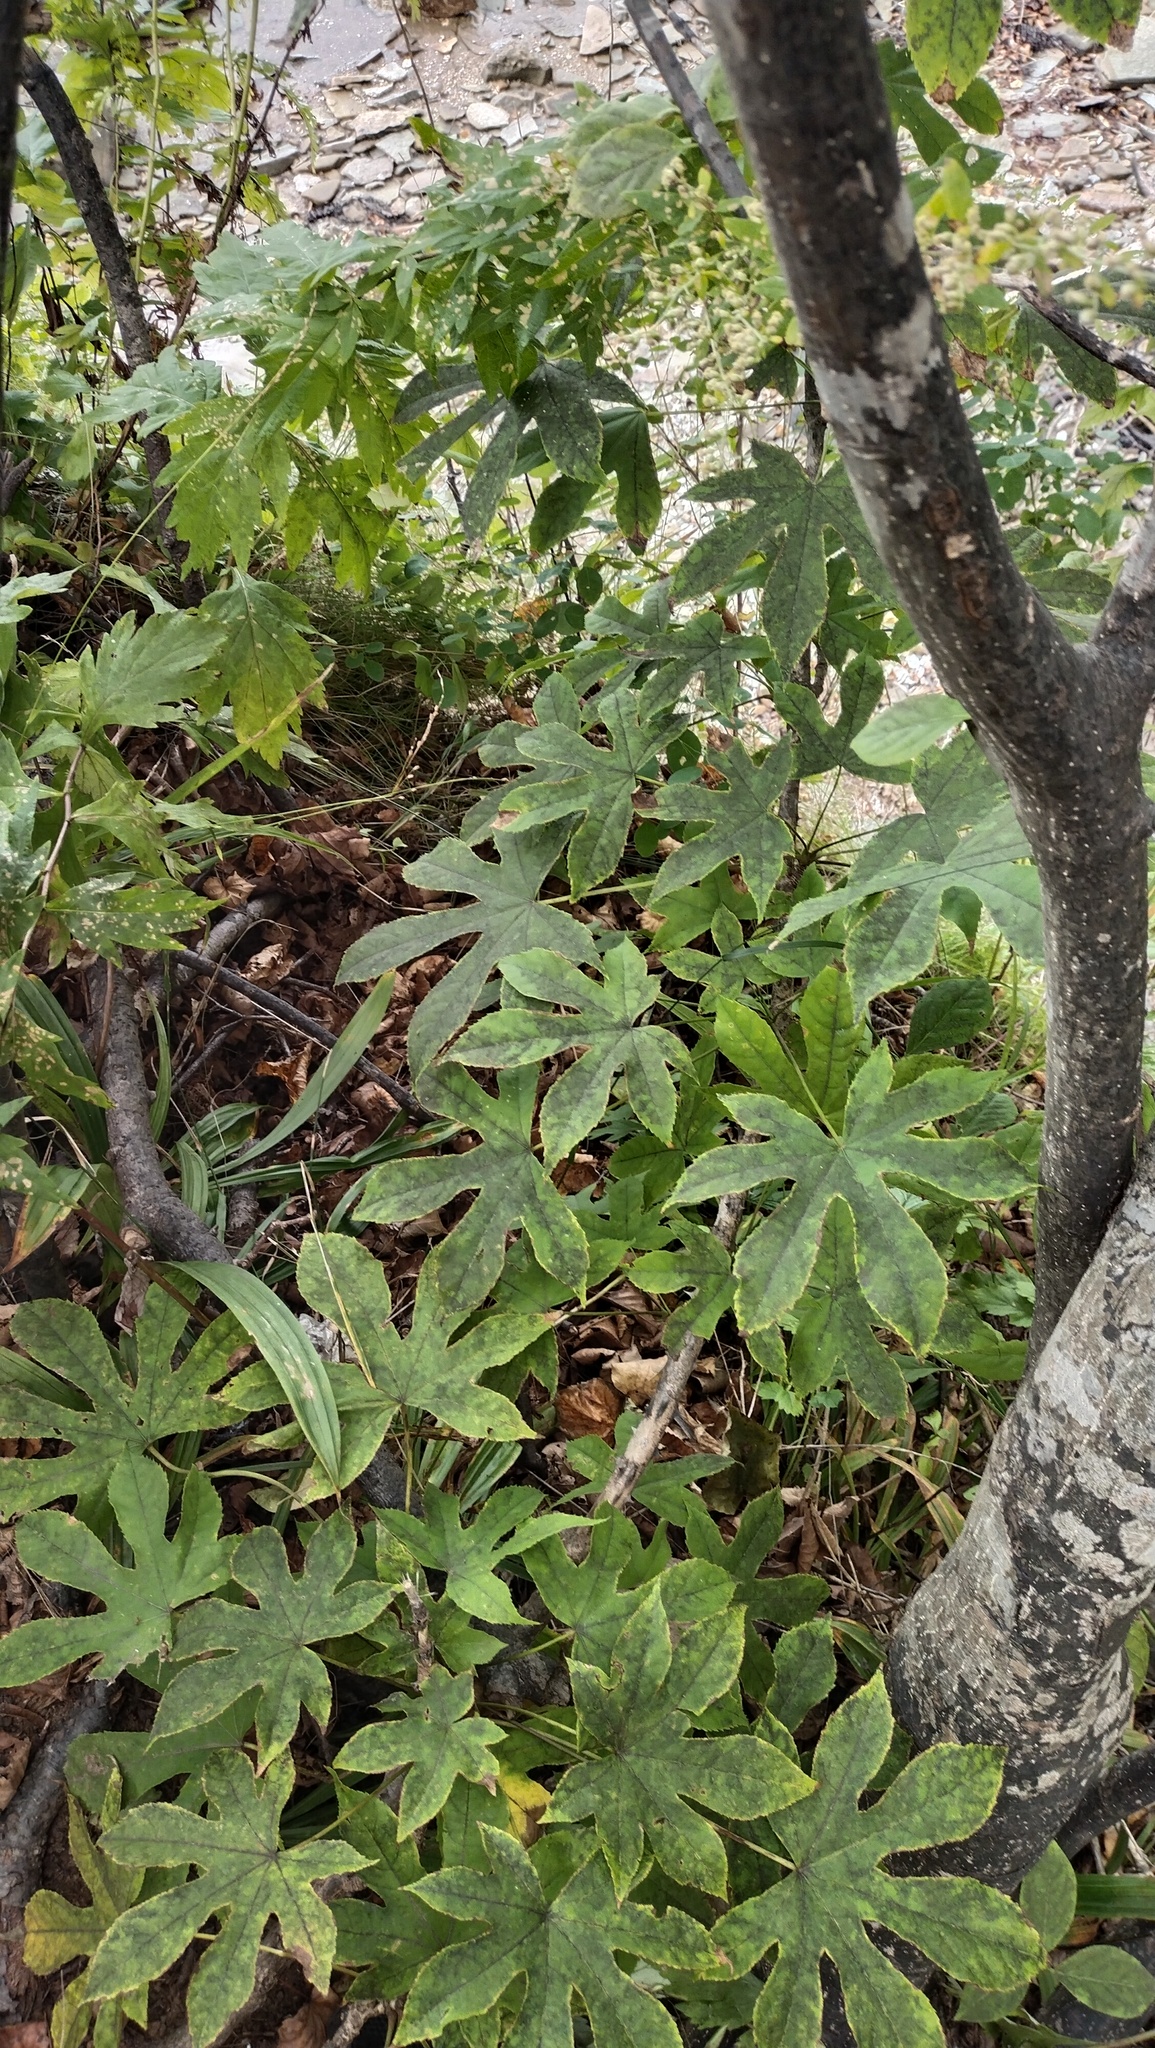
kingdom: Plantae
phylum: Tracheophyta
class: Magnoliopsida
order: Apiales
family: Araliaceae
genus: Kalopanax
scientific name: Kalopanax septemlobus
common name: Castor aralia
